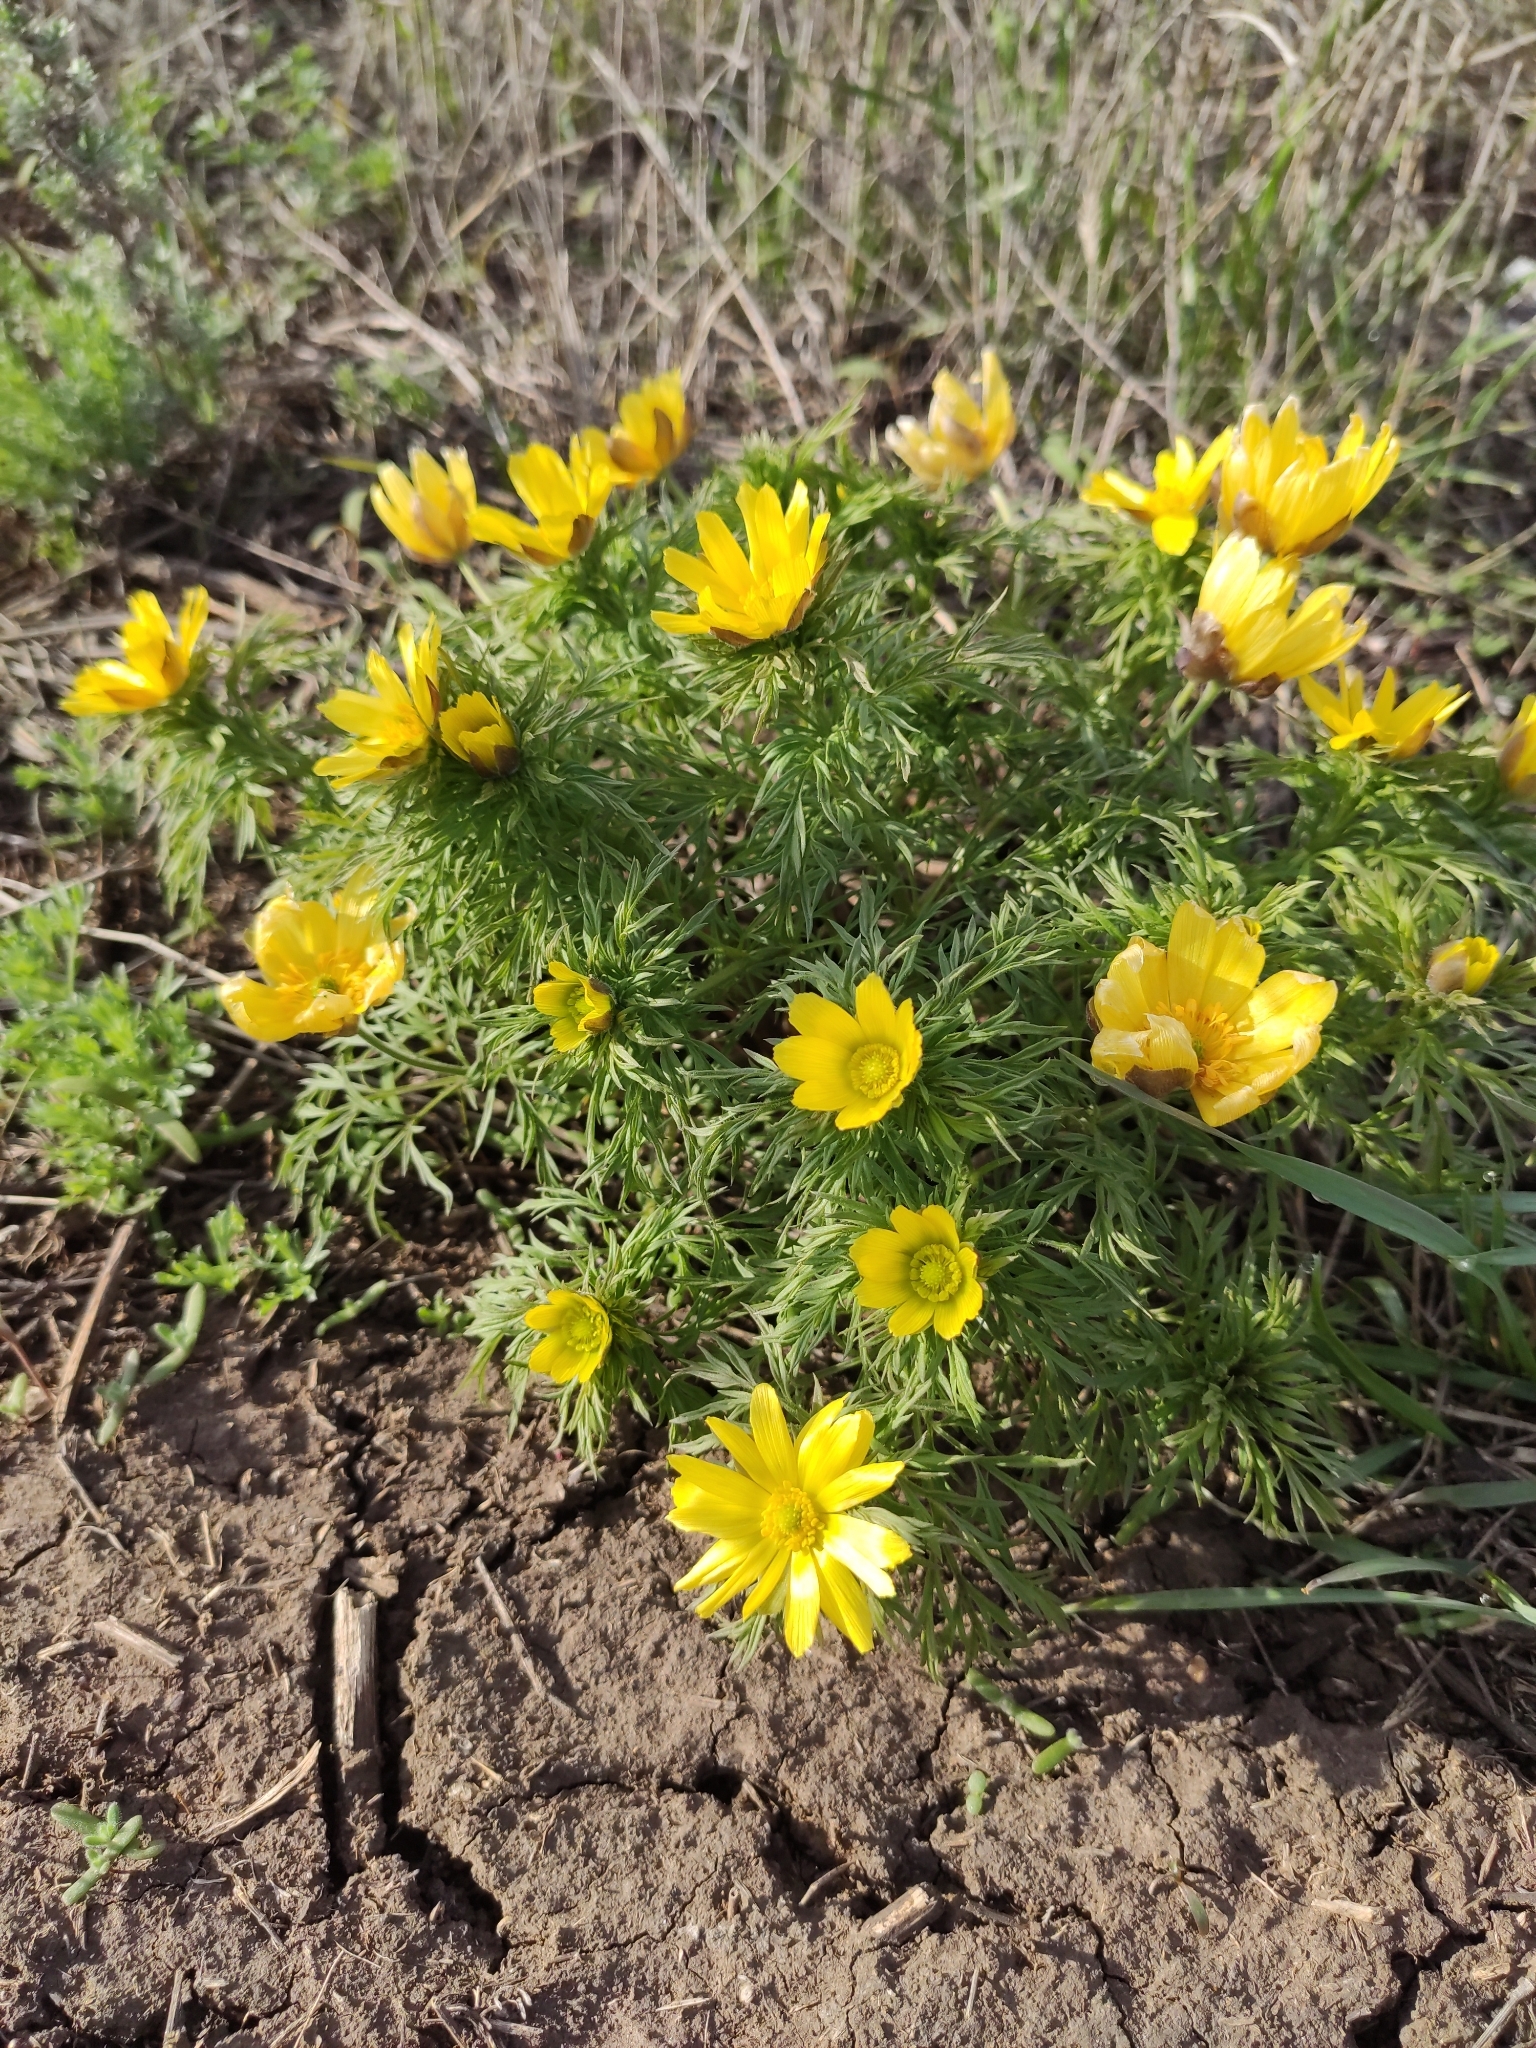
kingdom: Plantae
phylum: Tracheophyta
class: Magnoliopsida
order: Ranunculales
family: Ranunculaceae
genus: Adonis
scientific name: Adonis volgensis
